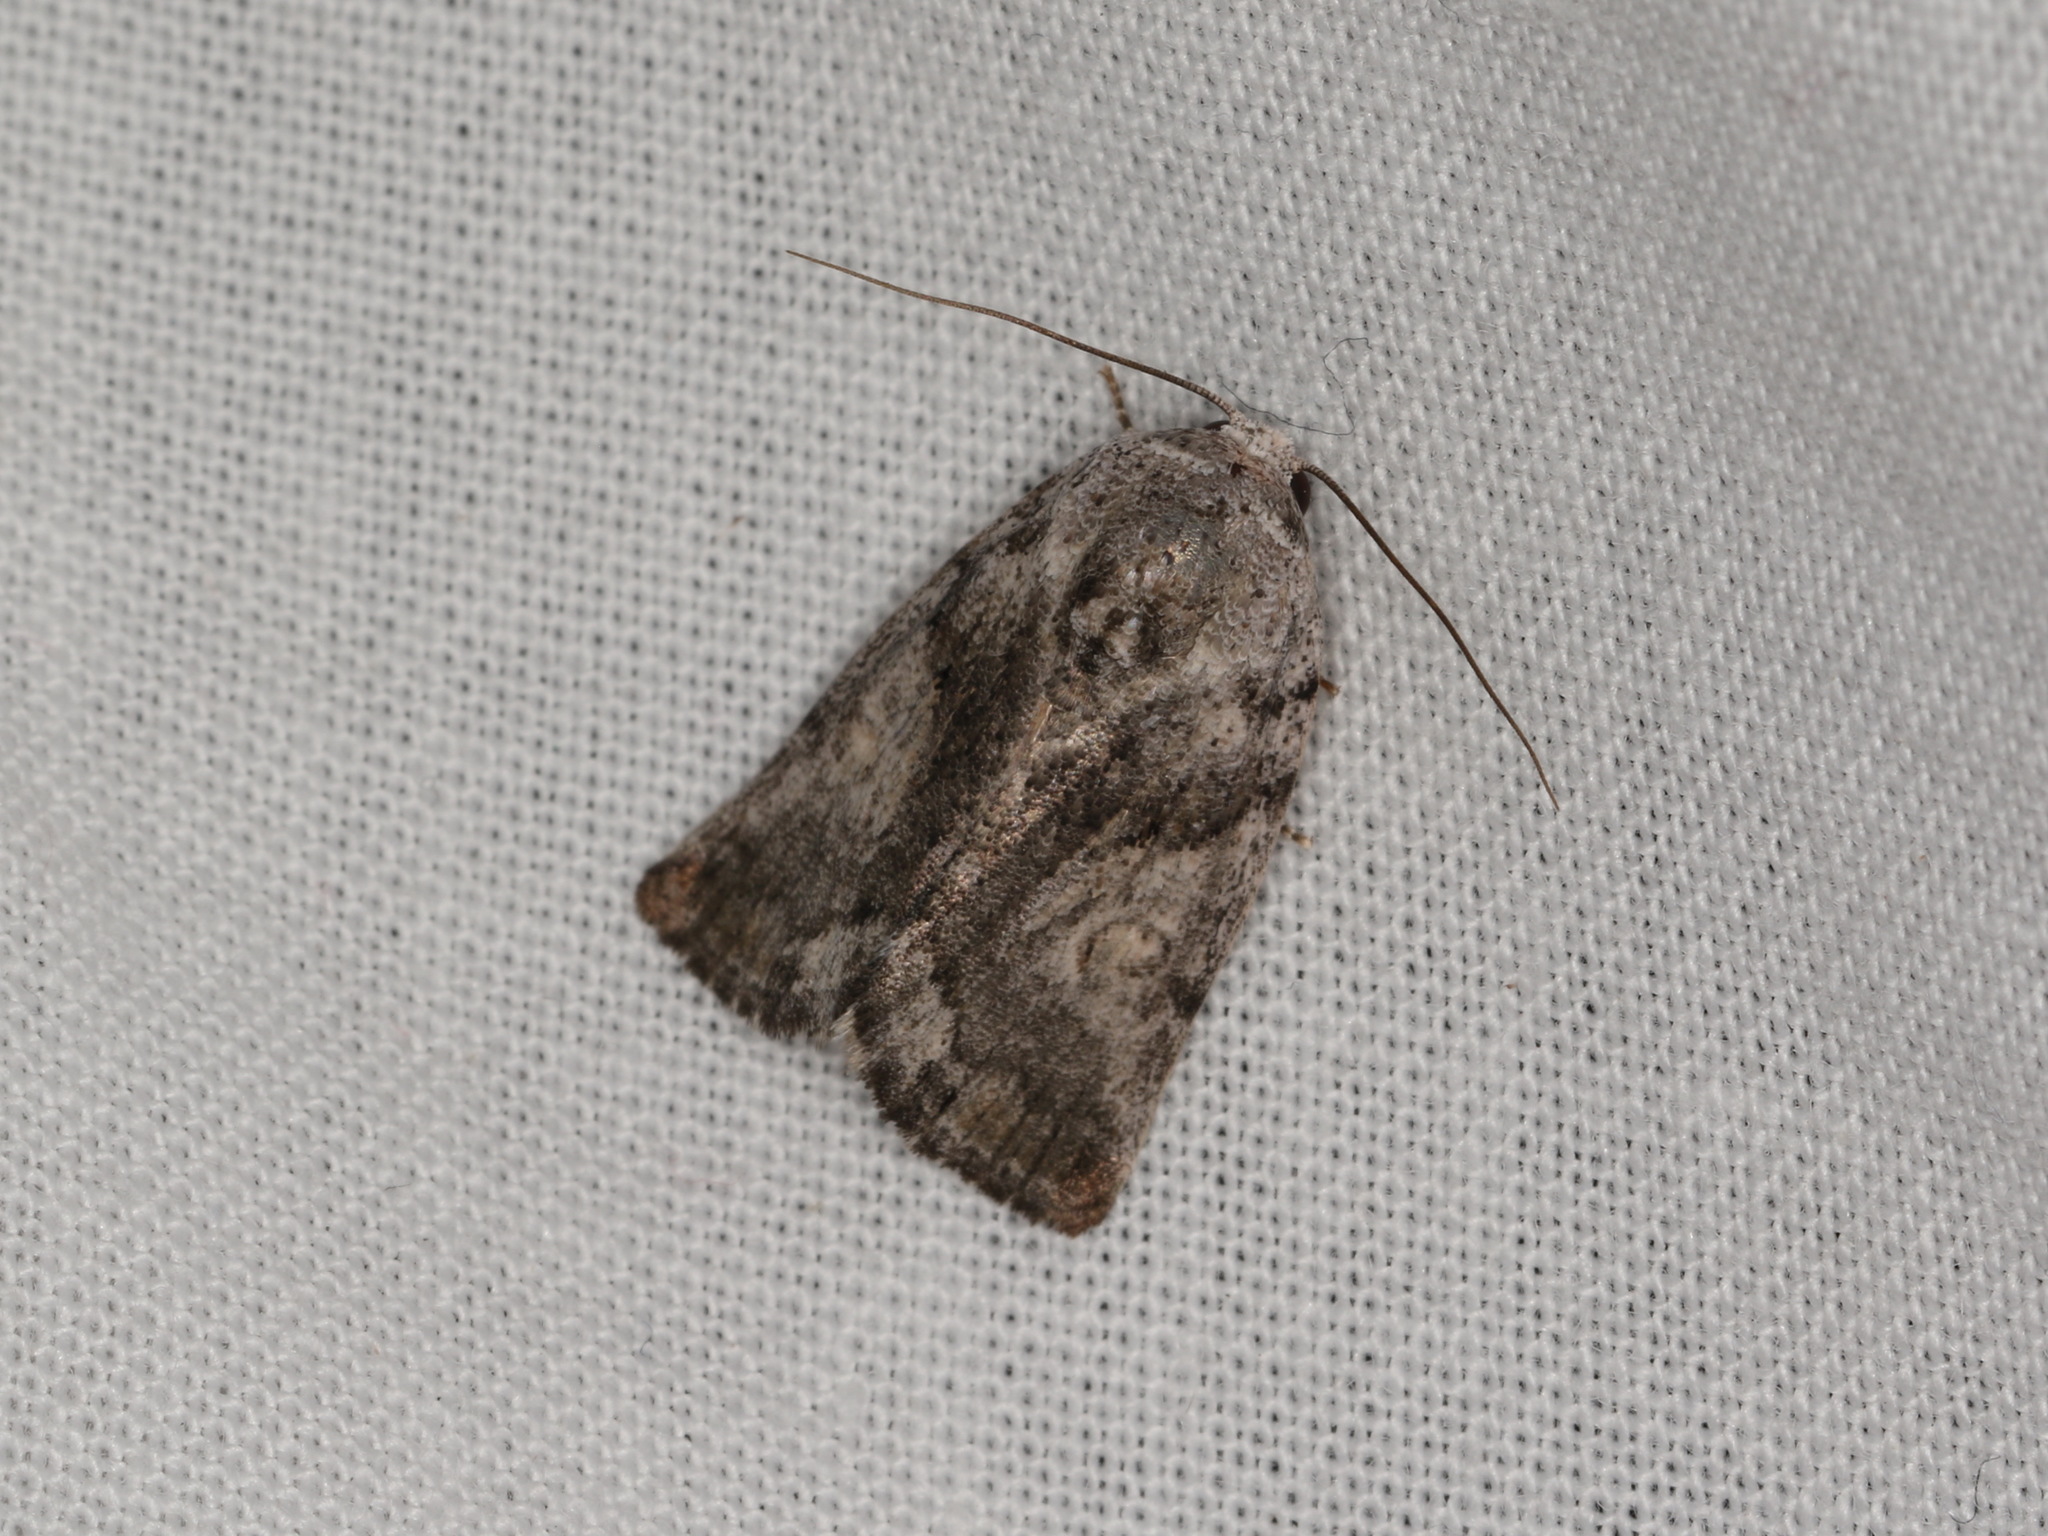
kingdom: Animalia
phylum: Arthropoda
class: Insecta
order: Lepidoptera
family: Nolidae
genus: Bryophilopsis
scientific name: Bryophilopsis leucopolia
